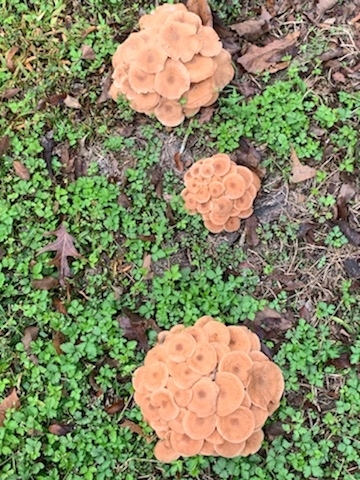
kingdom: Fungi
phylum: Basidiomycota
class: Agaricomycetes
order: Agaricales
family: Physalacriaceae
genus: Desarmillaria
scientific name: Desarmillaria caespitosa
